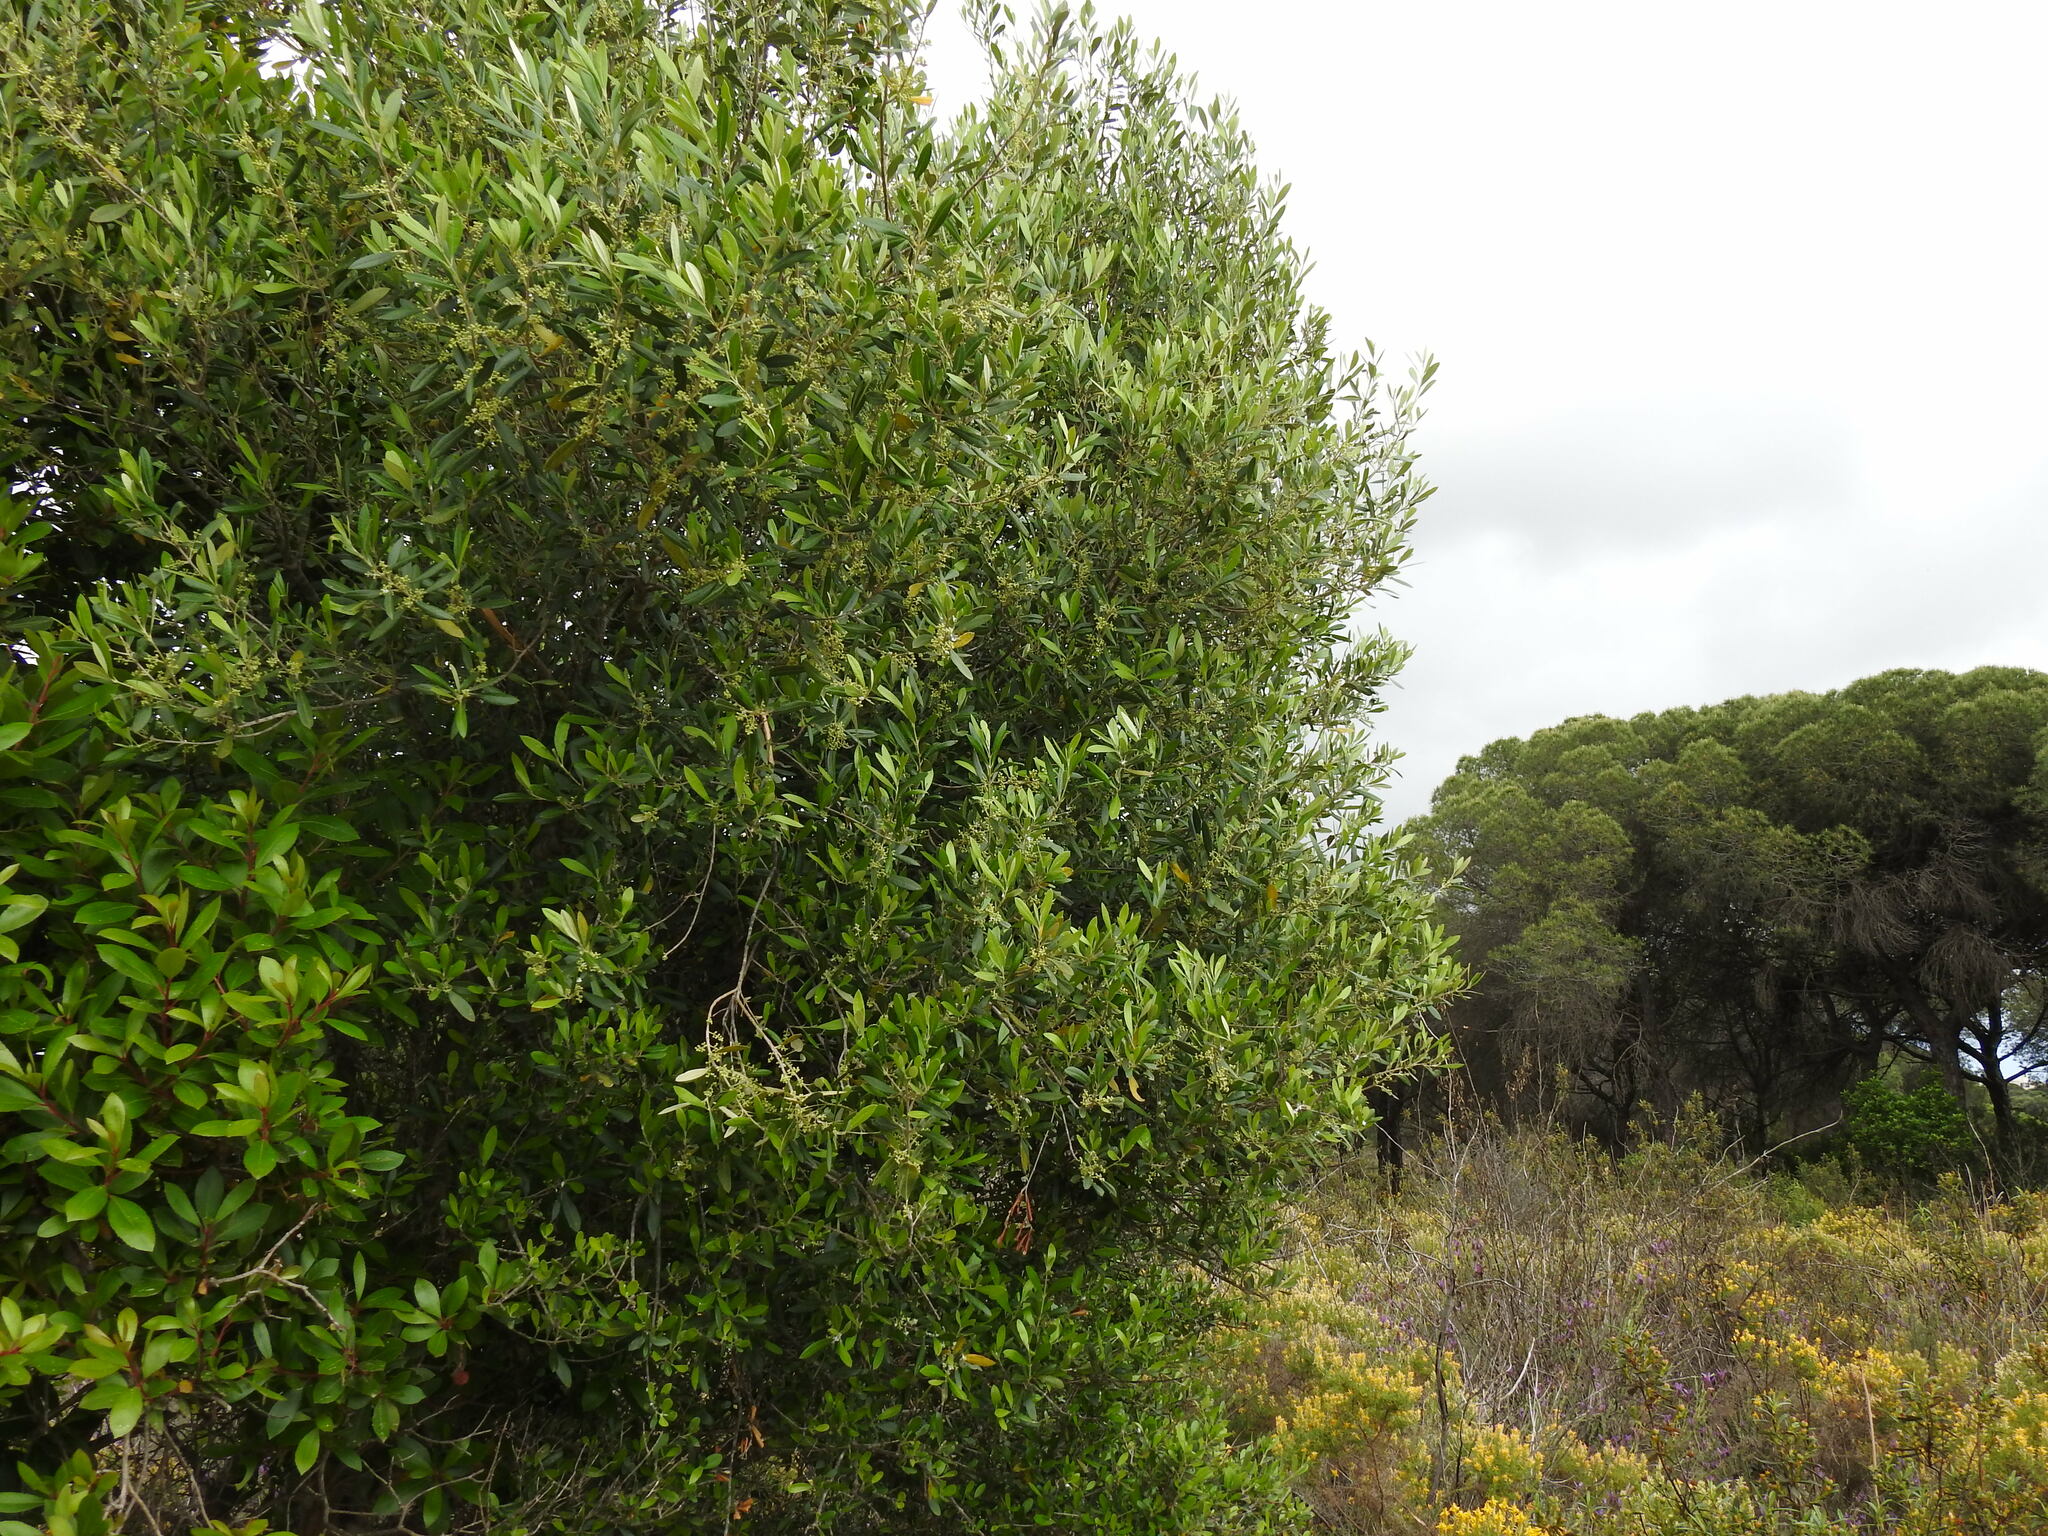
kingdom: Plantae
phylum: Tracheophyta
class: Magnoliopsida
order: Lamiales
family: Oleaceae
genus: Olea
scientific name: Olea europaea
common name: Olive
